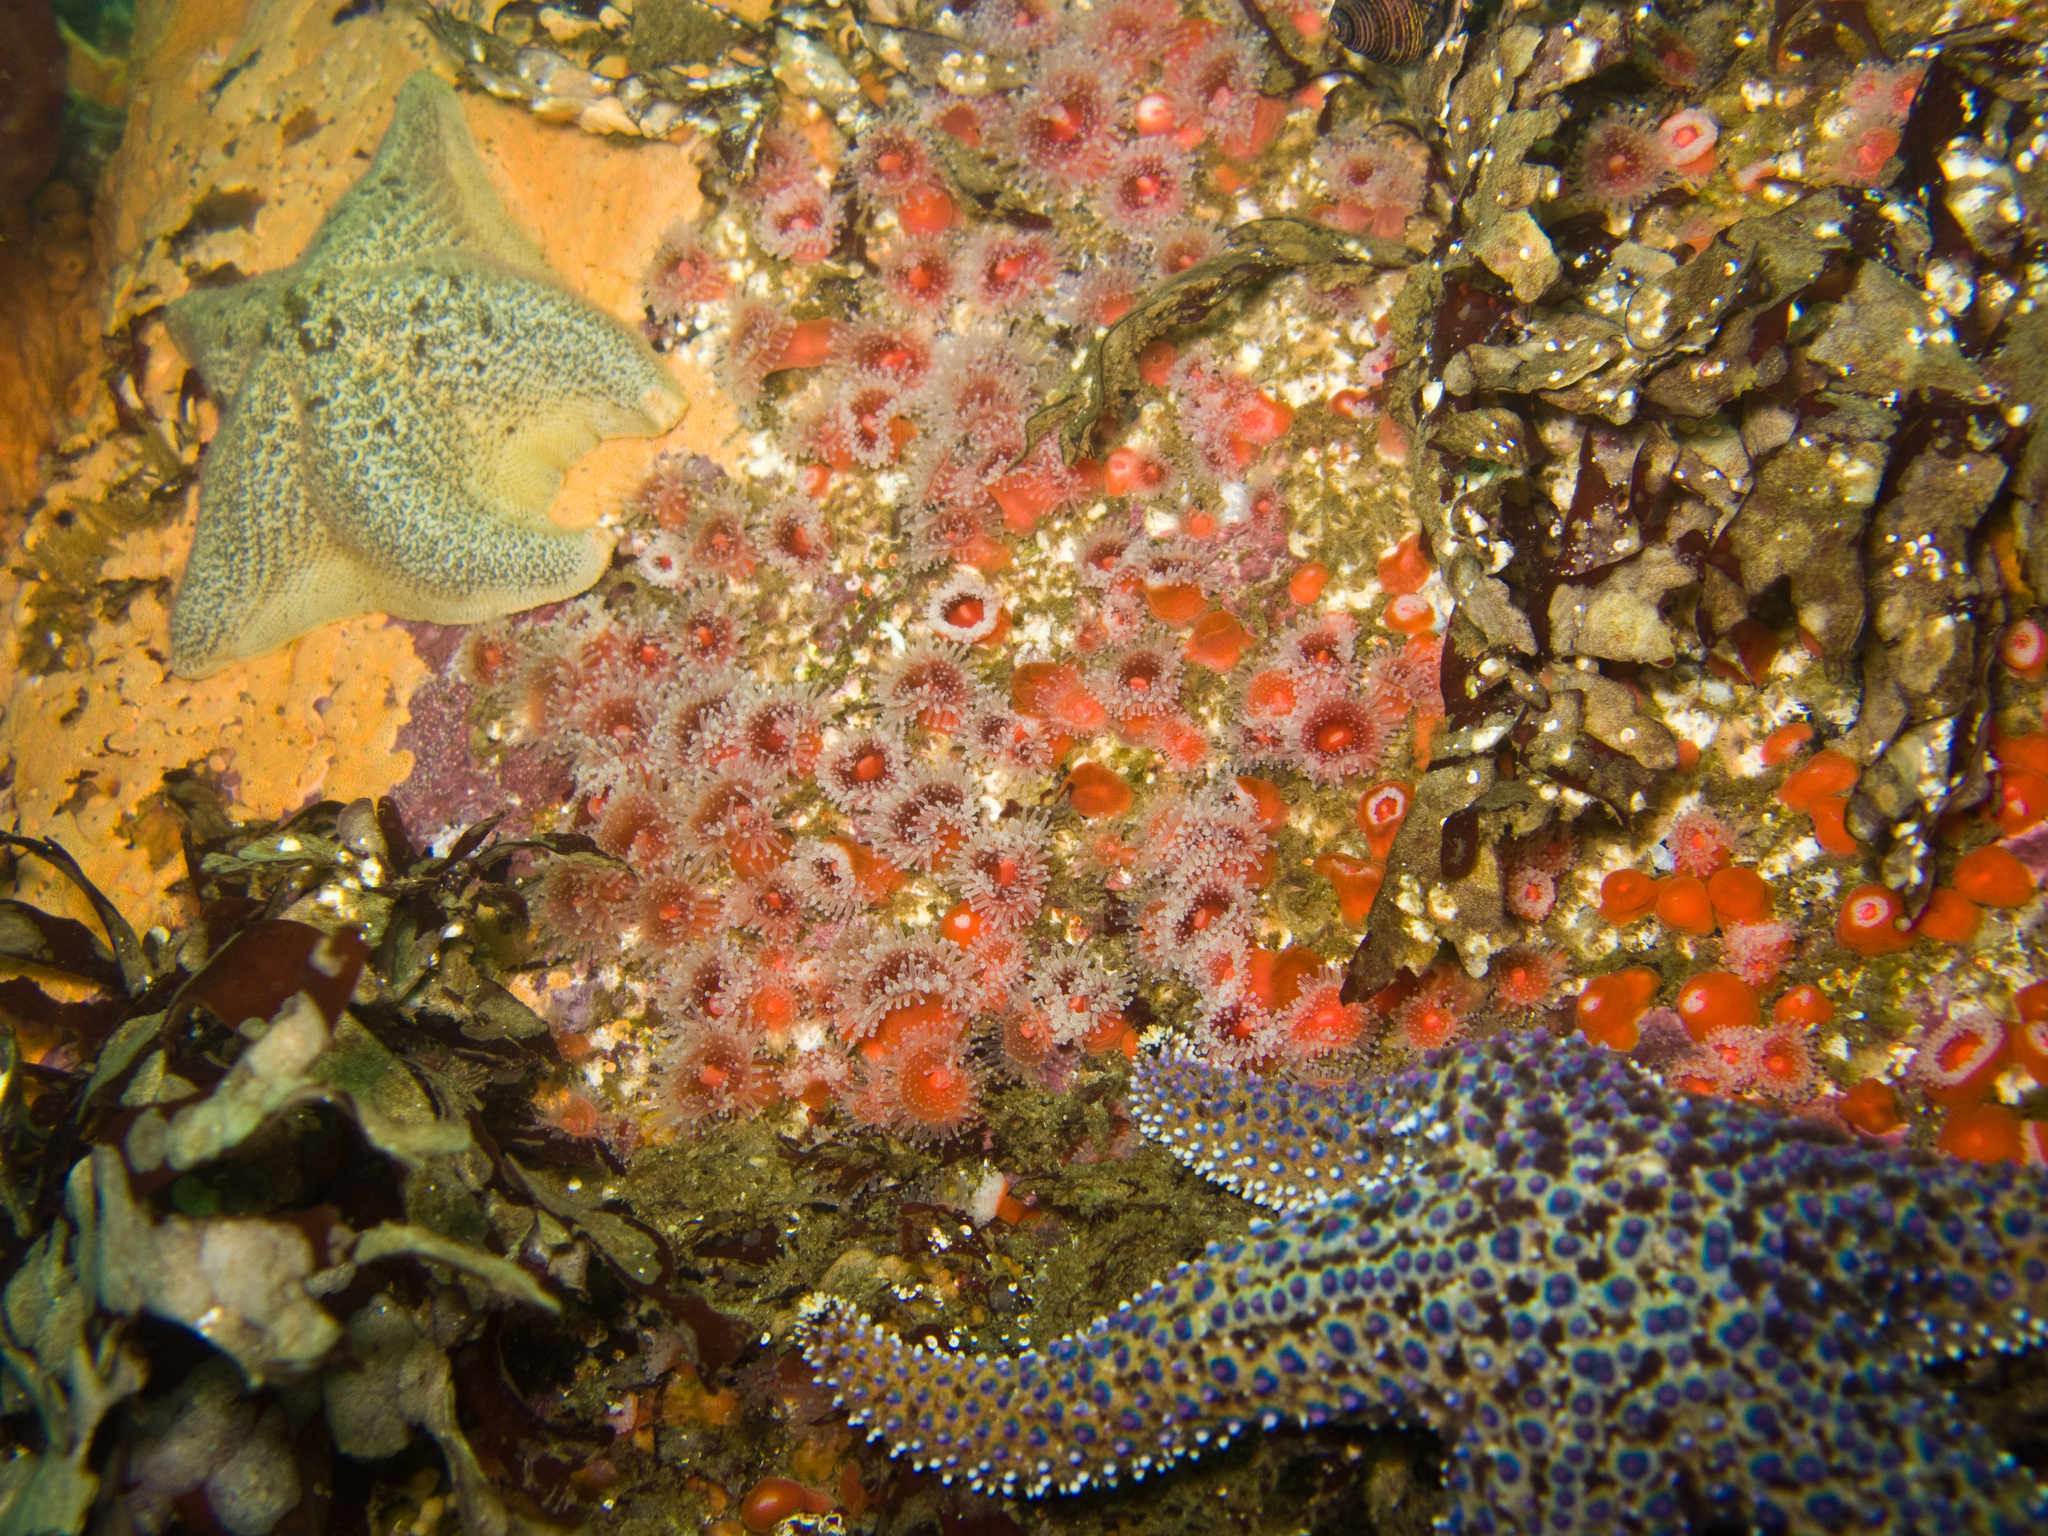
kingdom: Animalia
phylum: Echinodermata
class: Asteroidea
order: Forcipulatida
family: Asteriidae
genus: Pisaster
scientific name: Pisaster giganteus
